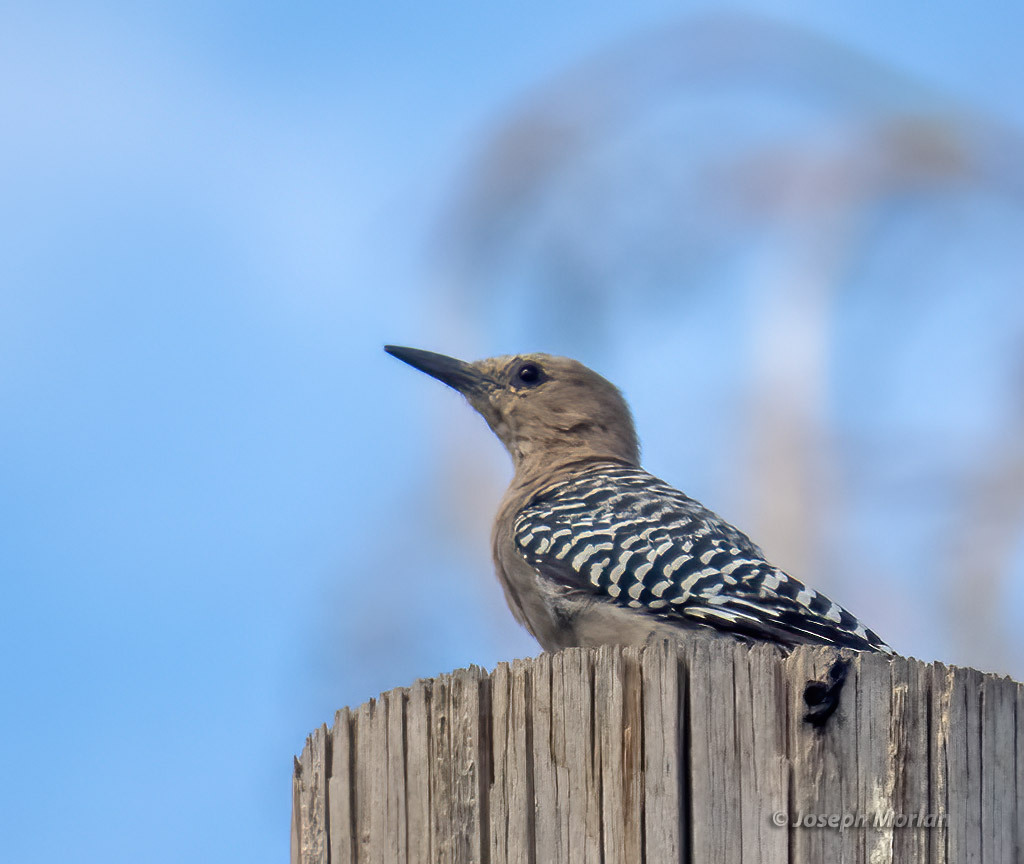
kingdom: Animalia
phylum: Chordata
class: Aves
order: Piciformes
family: Picidae
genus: Melanerpes
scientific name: Melanerpes uropygialis
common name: Gila woodpecker
